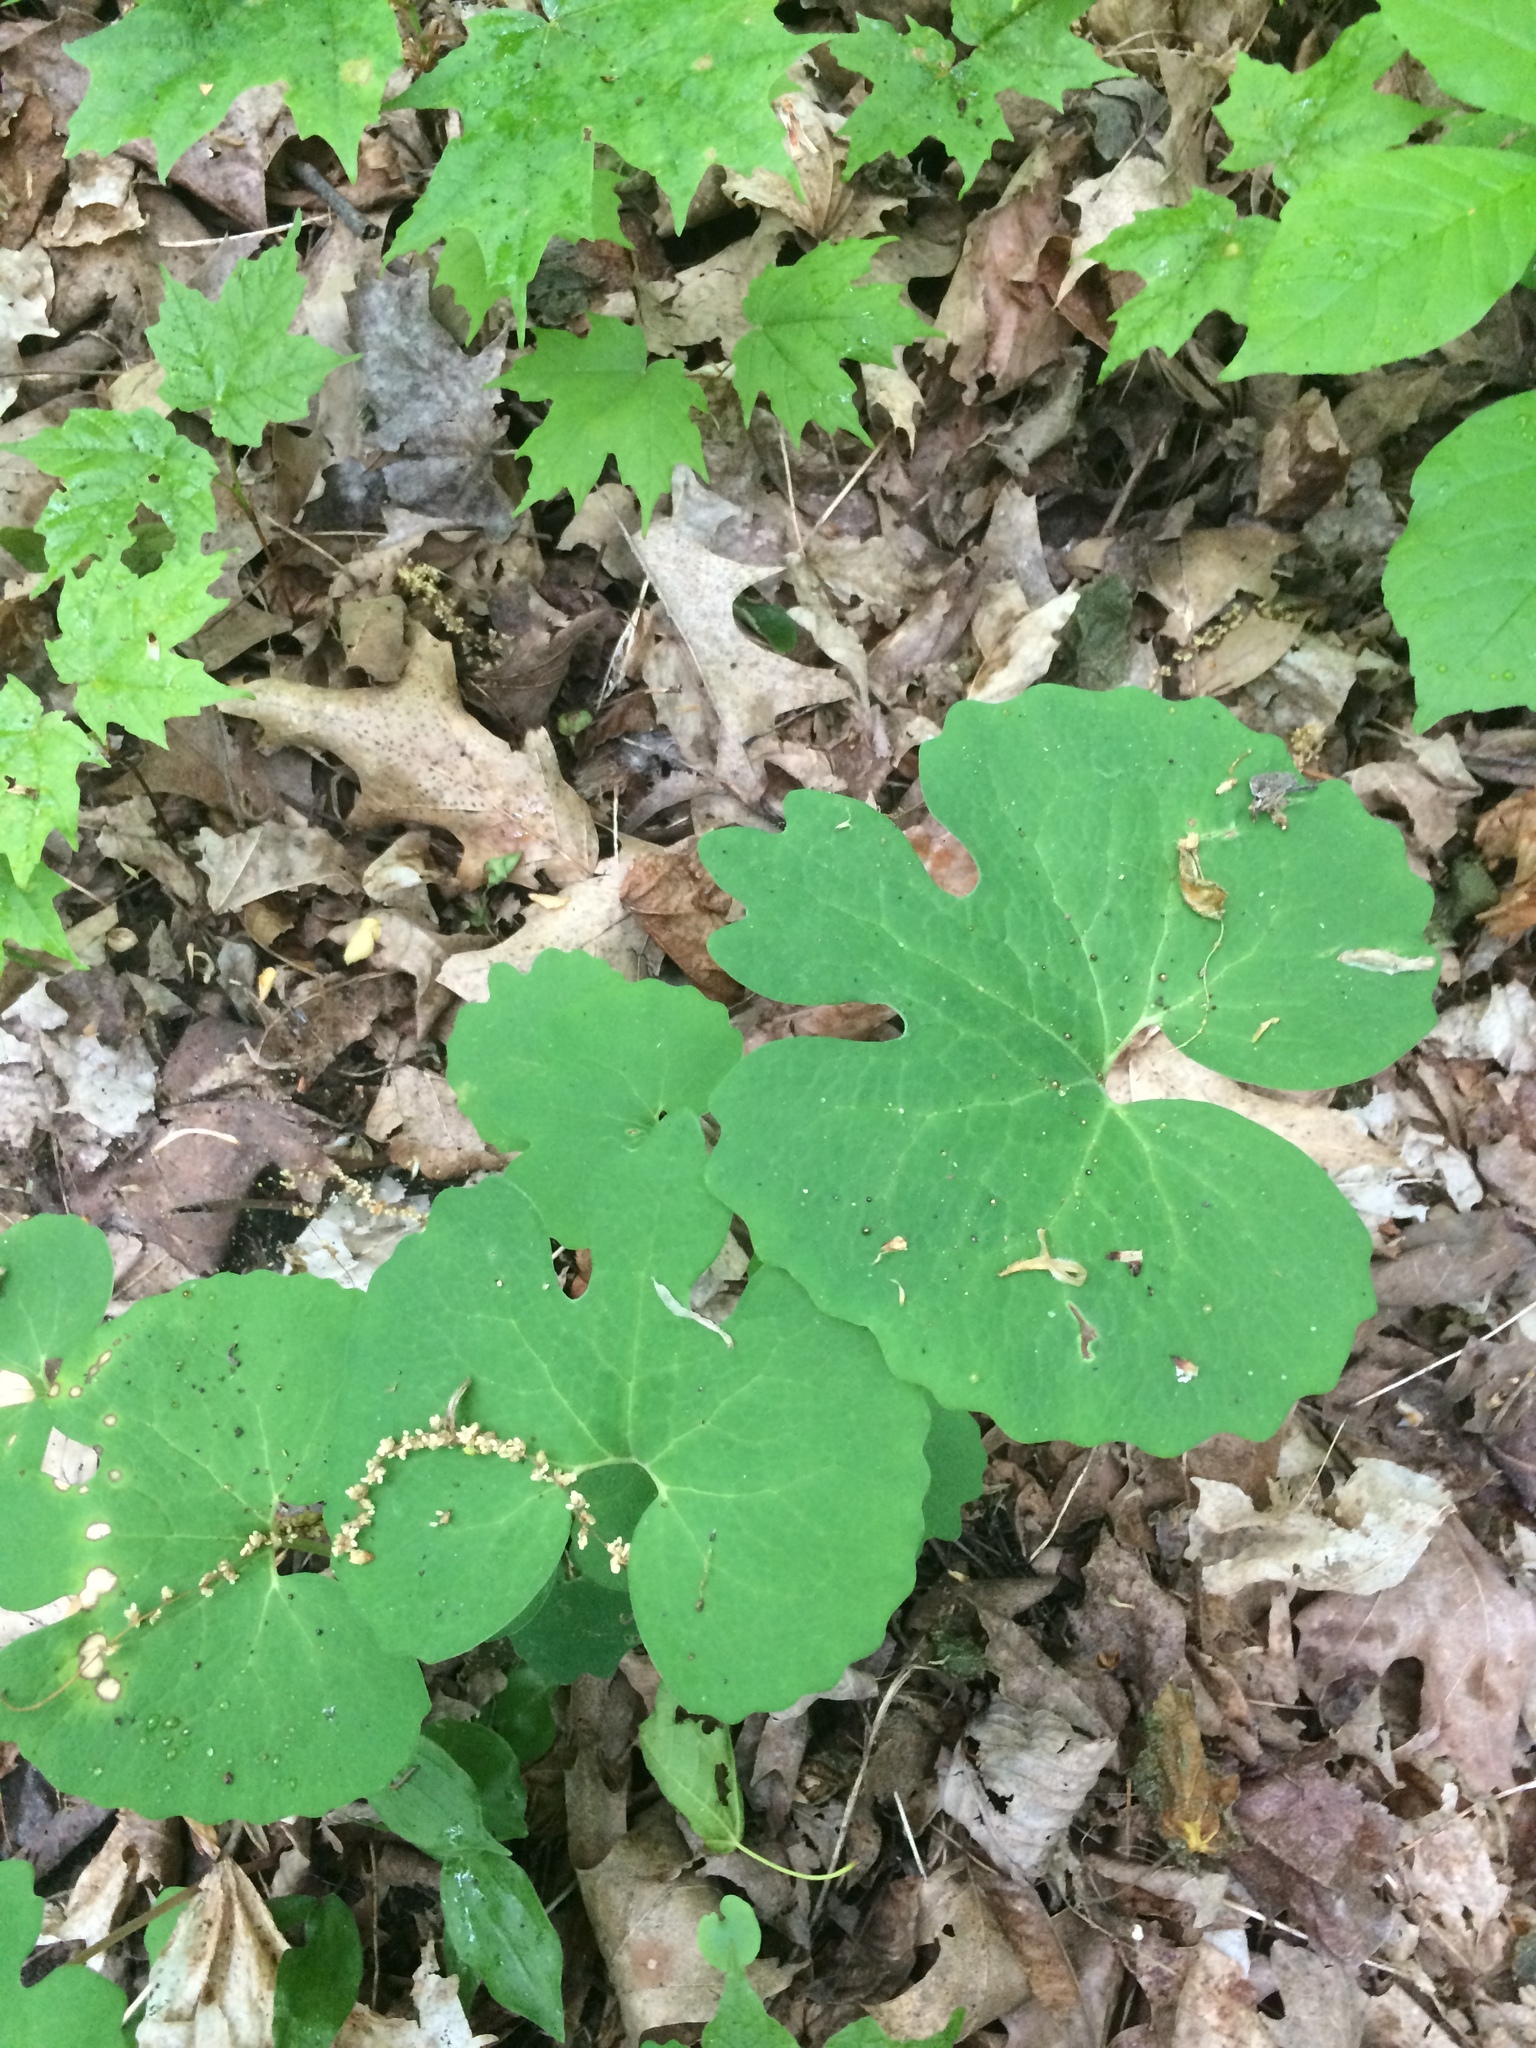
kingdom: Plantae
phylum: Tracheophyta
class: Magnoliopsida
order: Ranunculales
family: Papaveraceae
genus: Sanguinaria
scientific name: Sanguinaria canadensis
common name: Bloodroot
